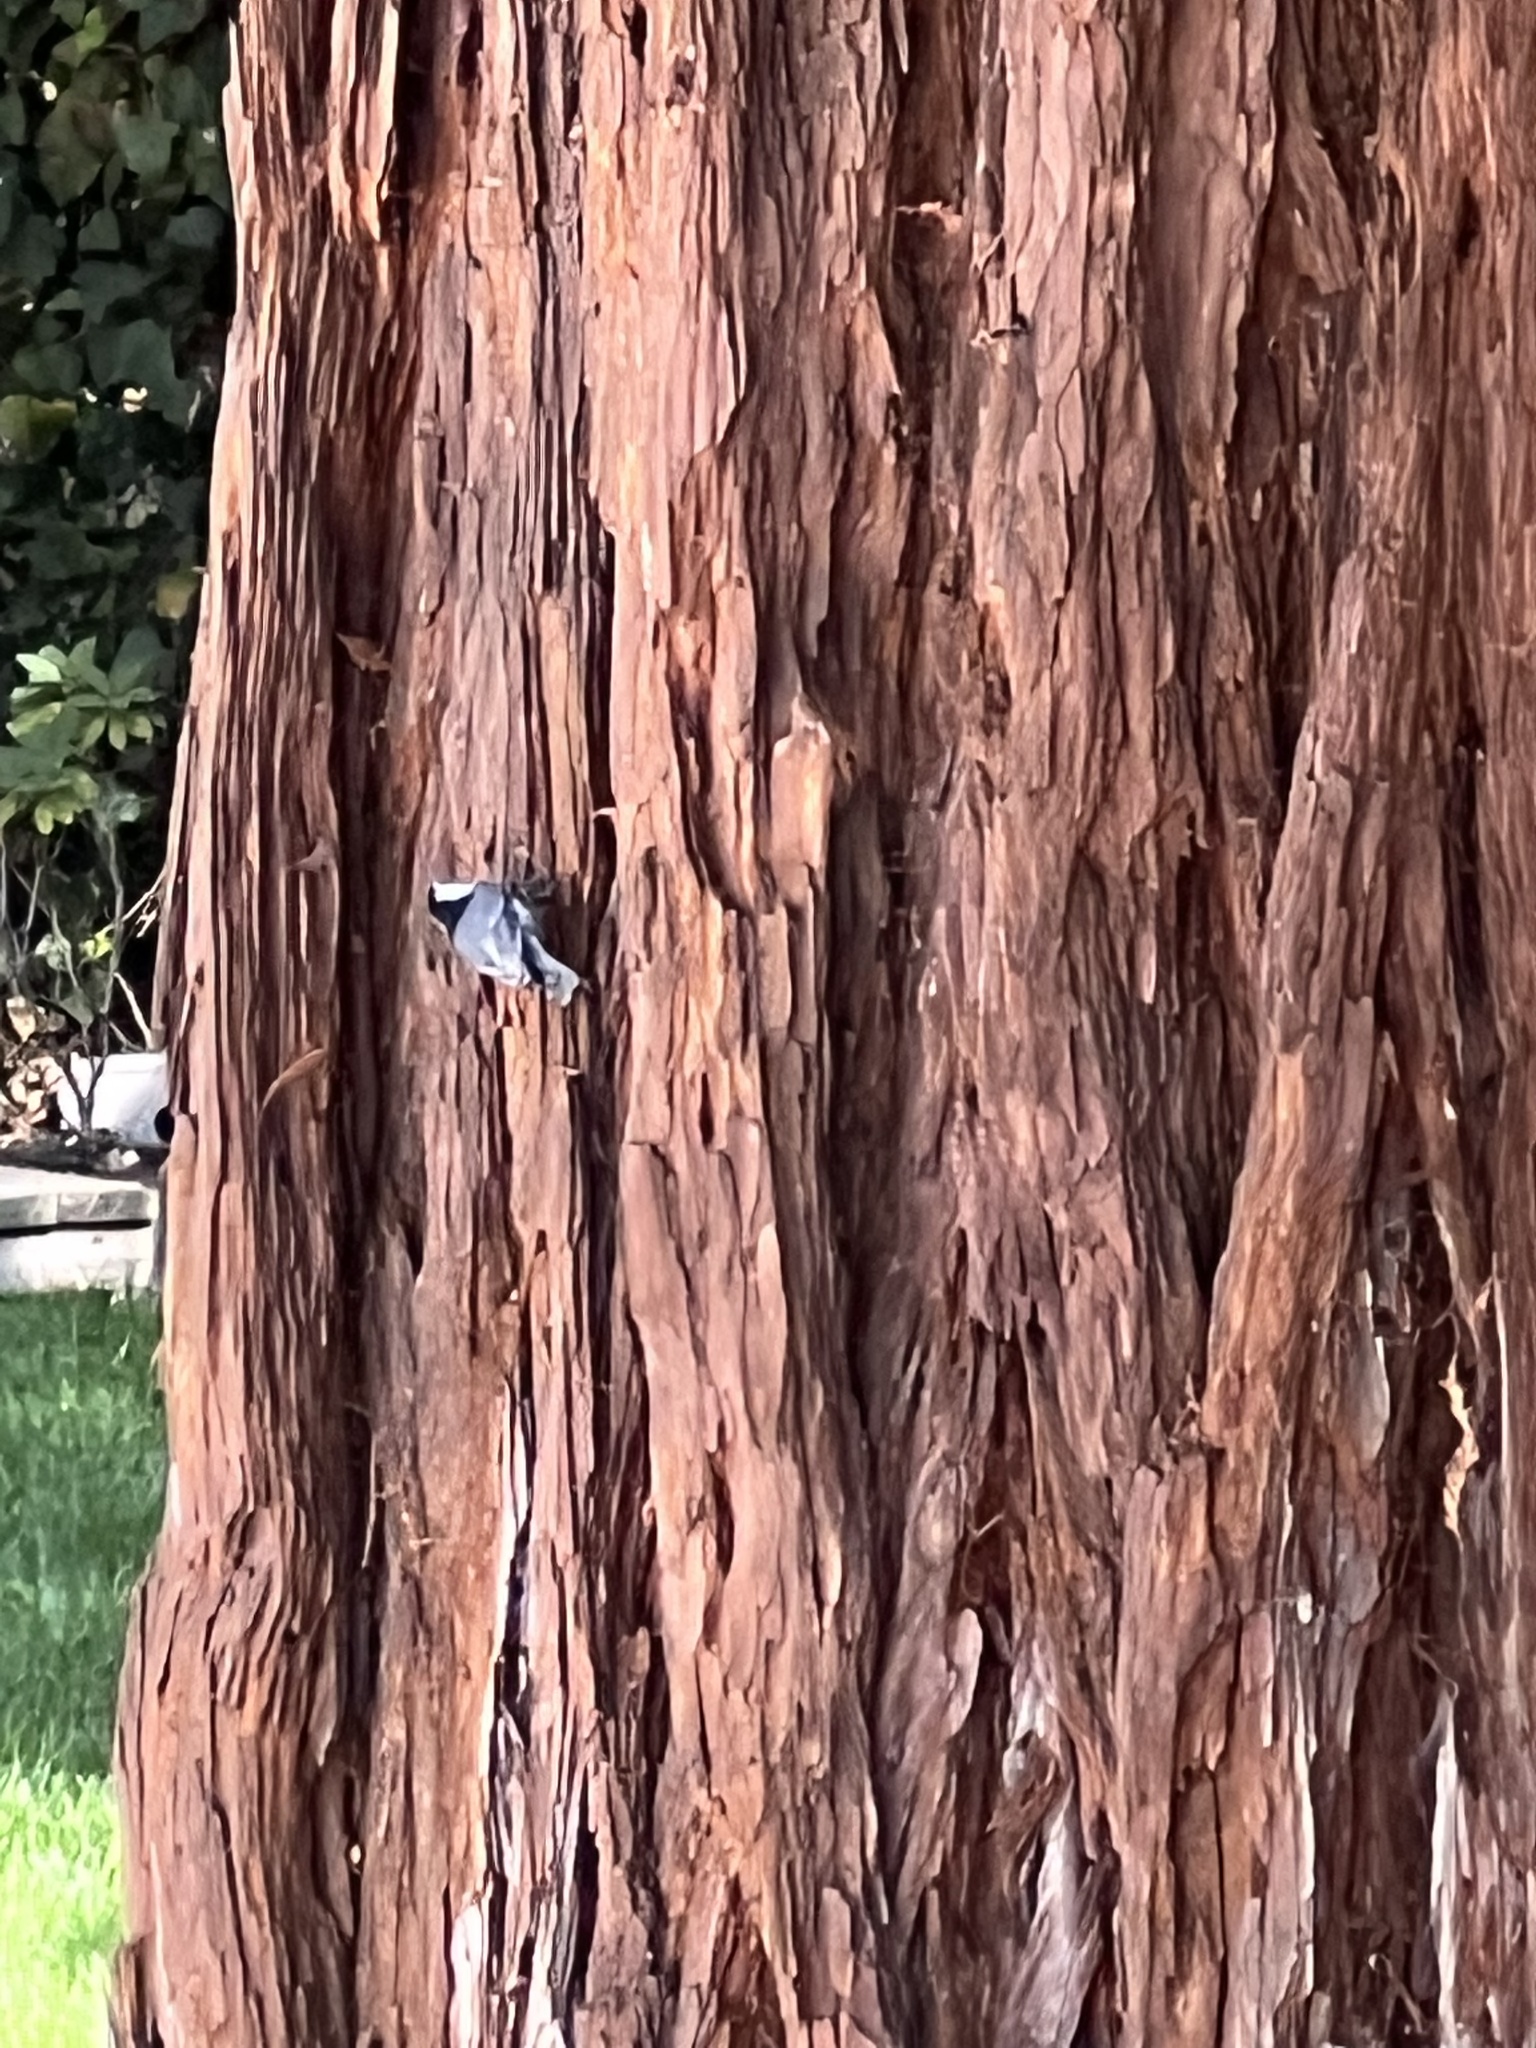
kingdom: Animalia
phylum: Chordata
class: Aves
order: Passeriformes
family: Sittidae
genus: Sitta
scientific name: Sitta carolinensis
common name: White-breasted nuthatch
